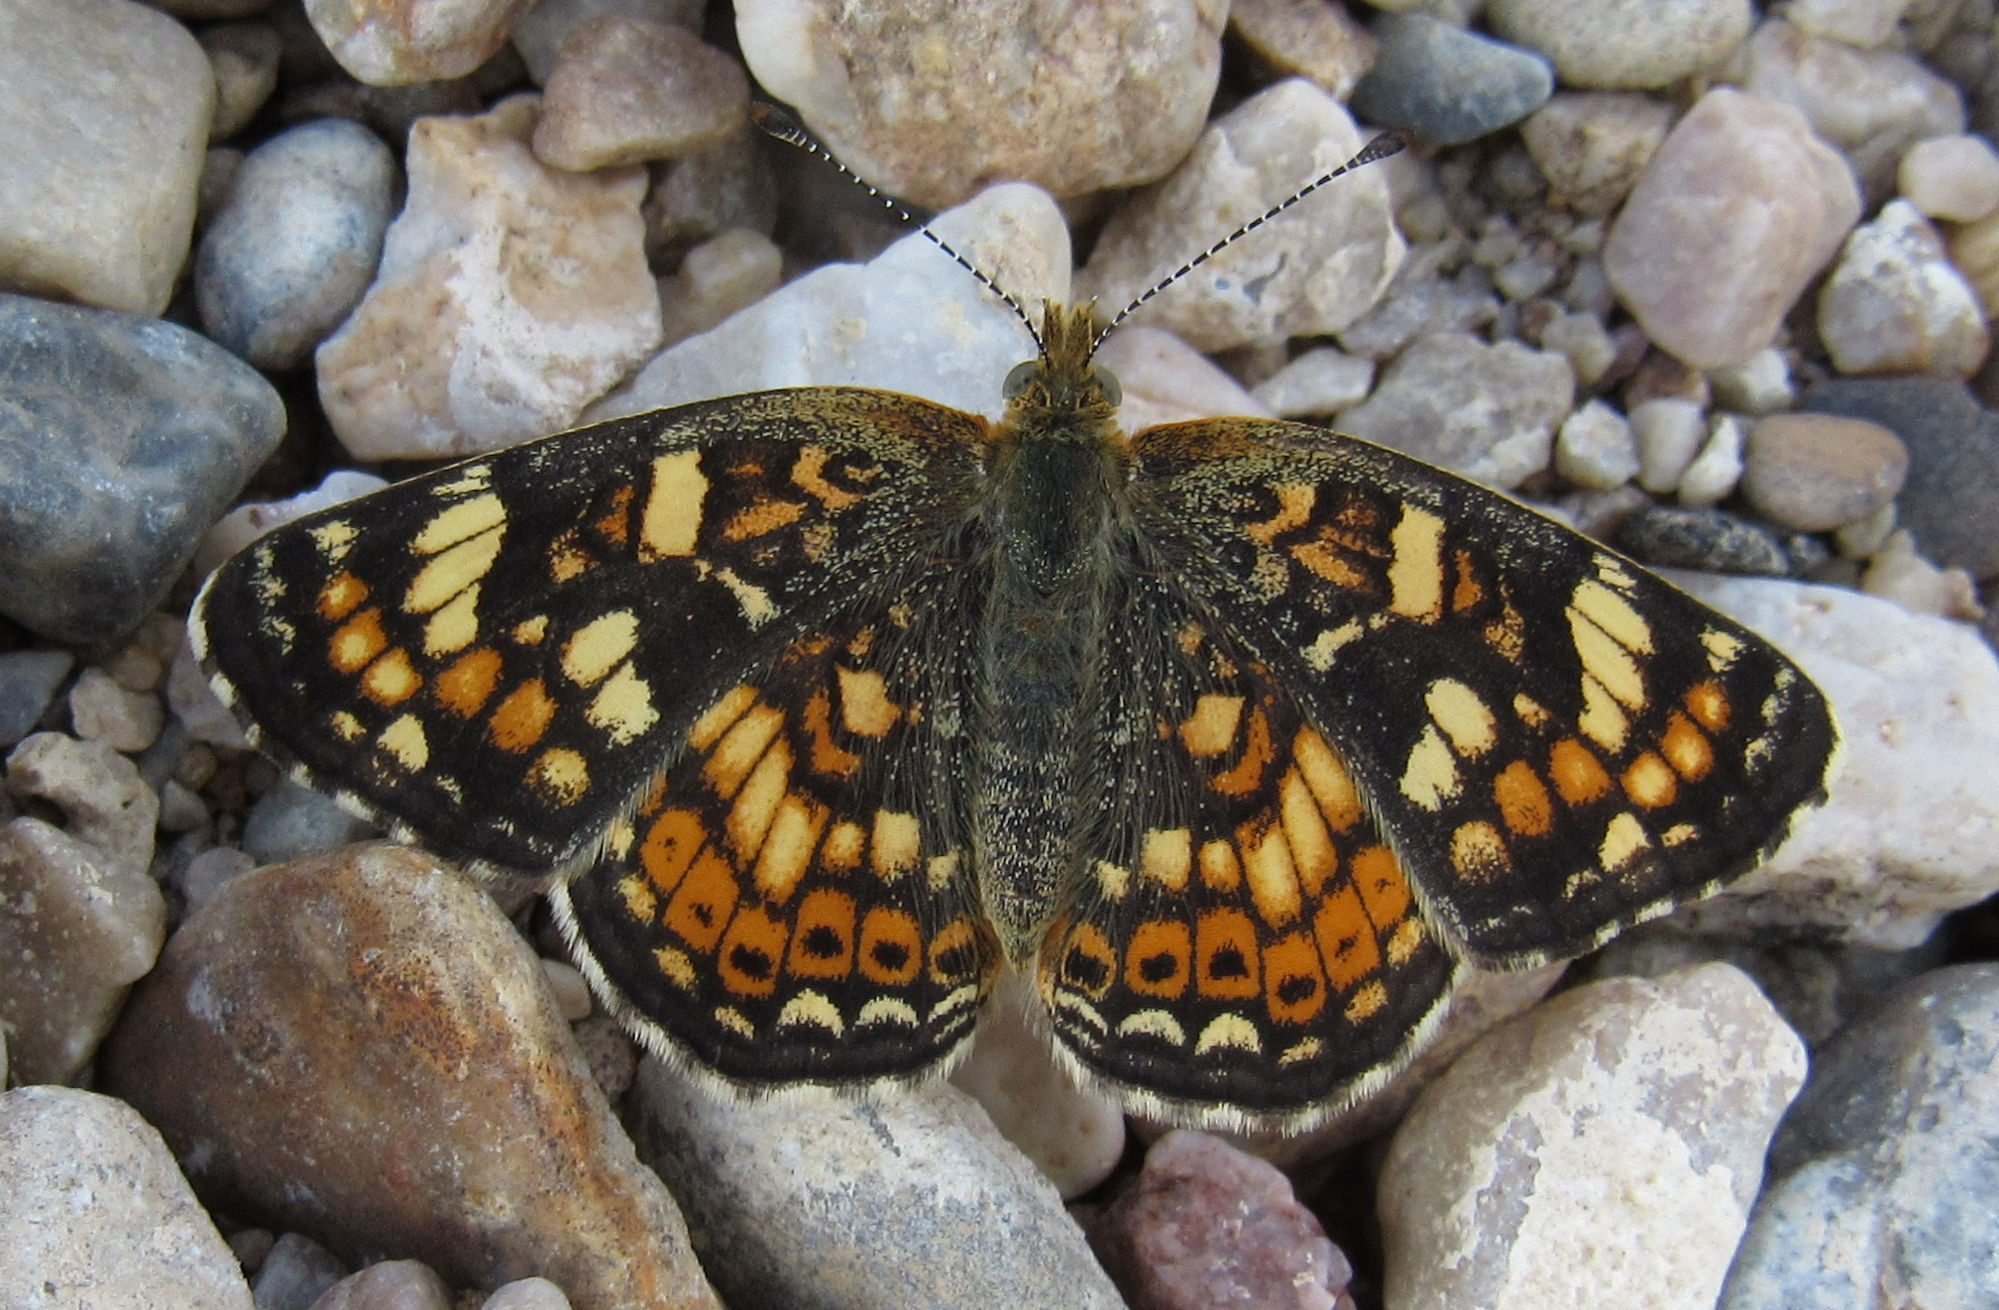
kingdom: Animalia
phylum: Arthropoda
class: Insecta
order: Lepidoptera
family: Nymphalidae
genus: Phyciodes
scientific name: Phyciodes tharos
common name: Pearl crescent
